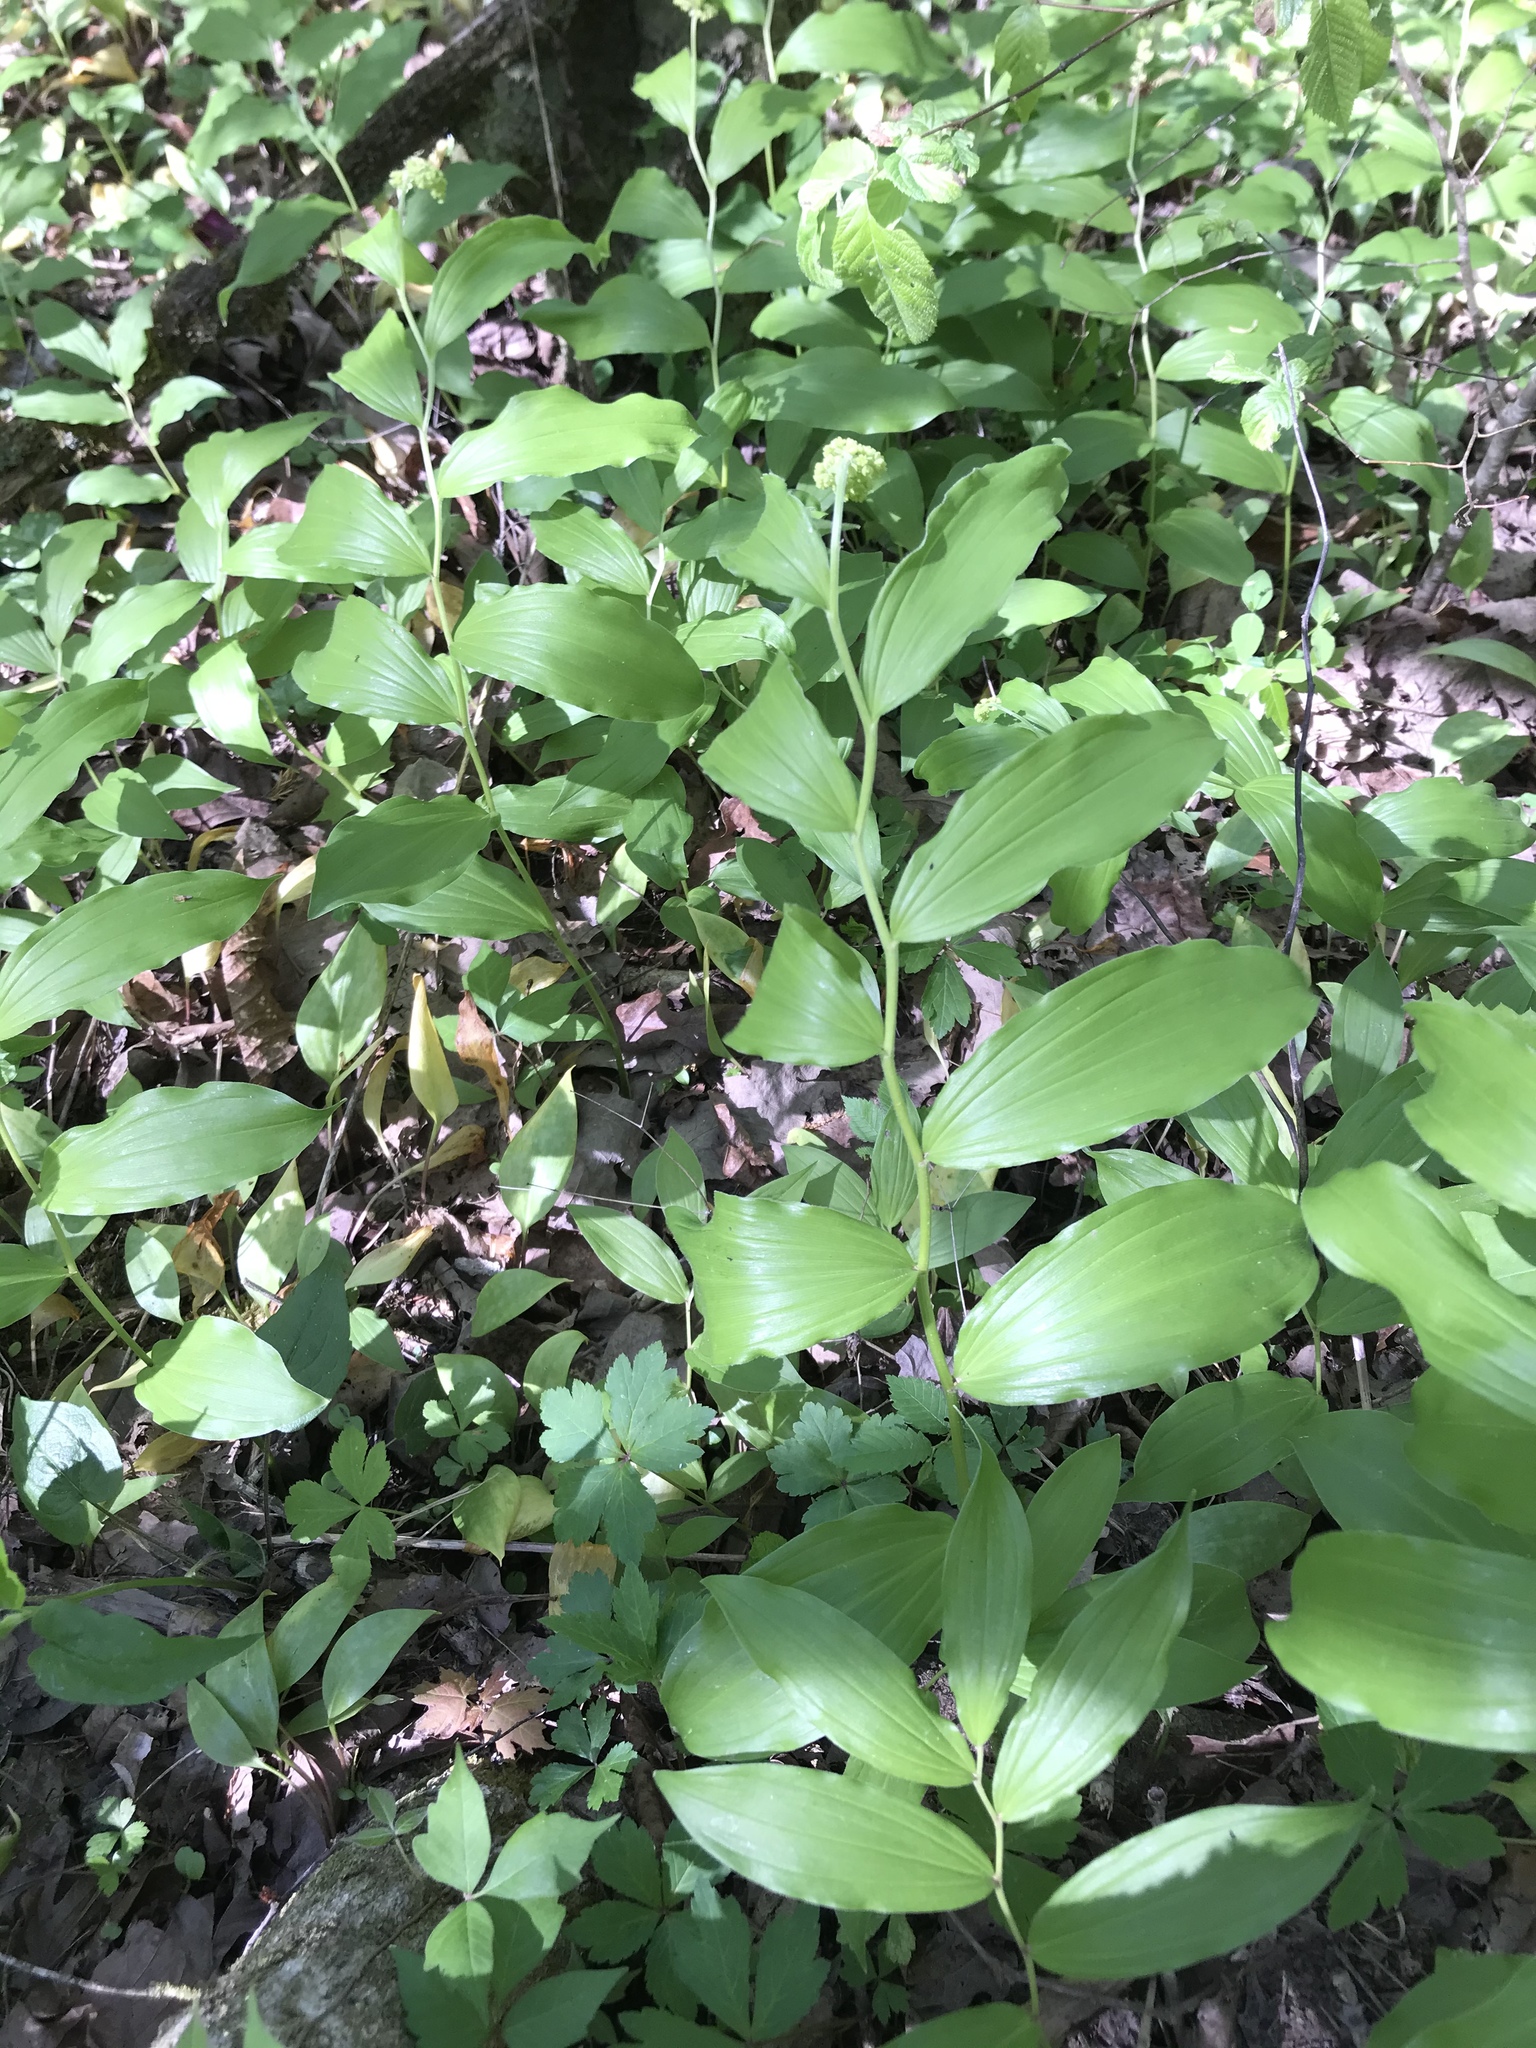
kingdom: Plantae
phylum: Tracheophyta
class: Liliopsida
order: Asparagales
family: Asparagaceae
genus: Maianthemum
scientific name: Maianthemum racemosum
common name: False spikenard
